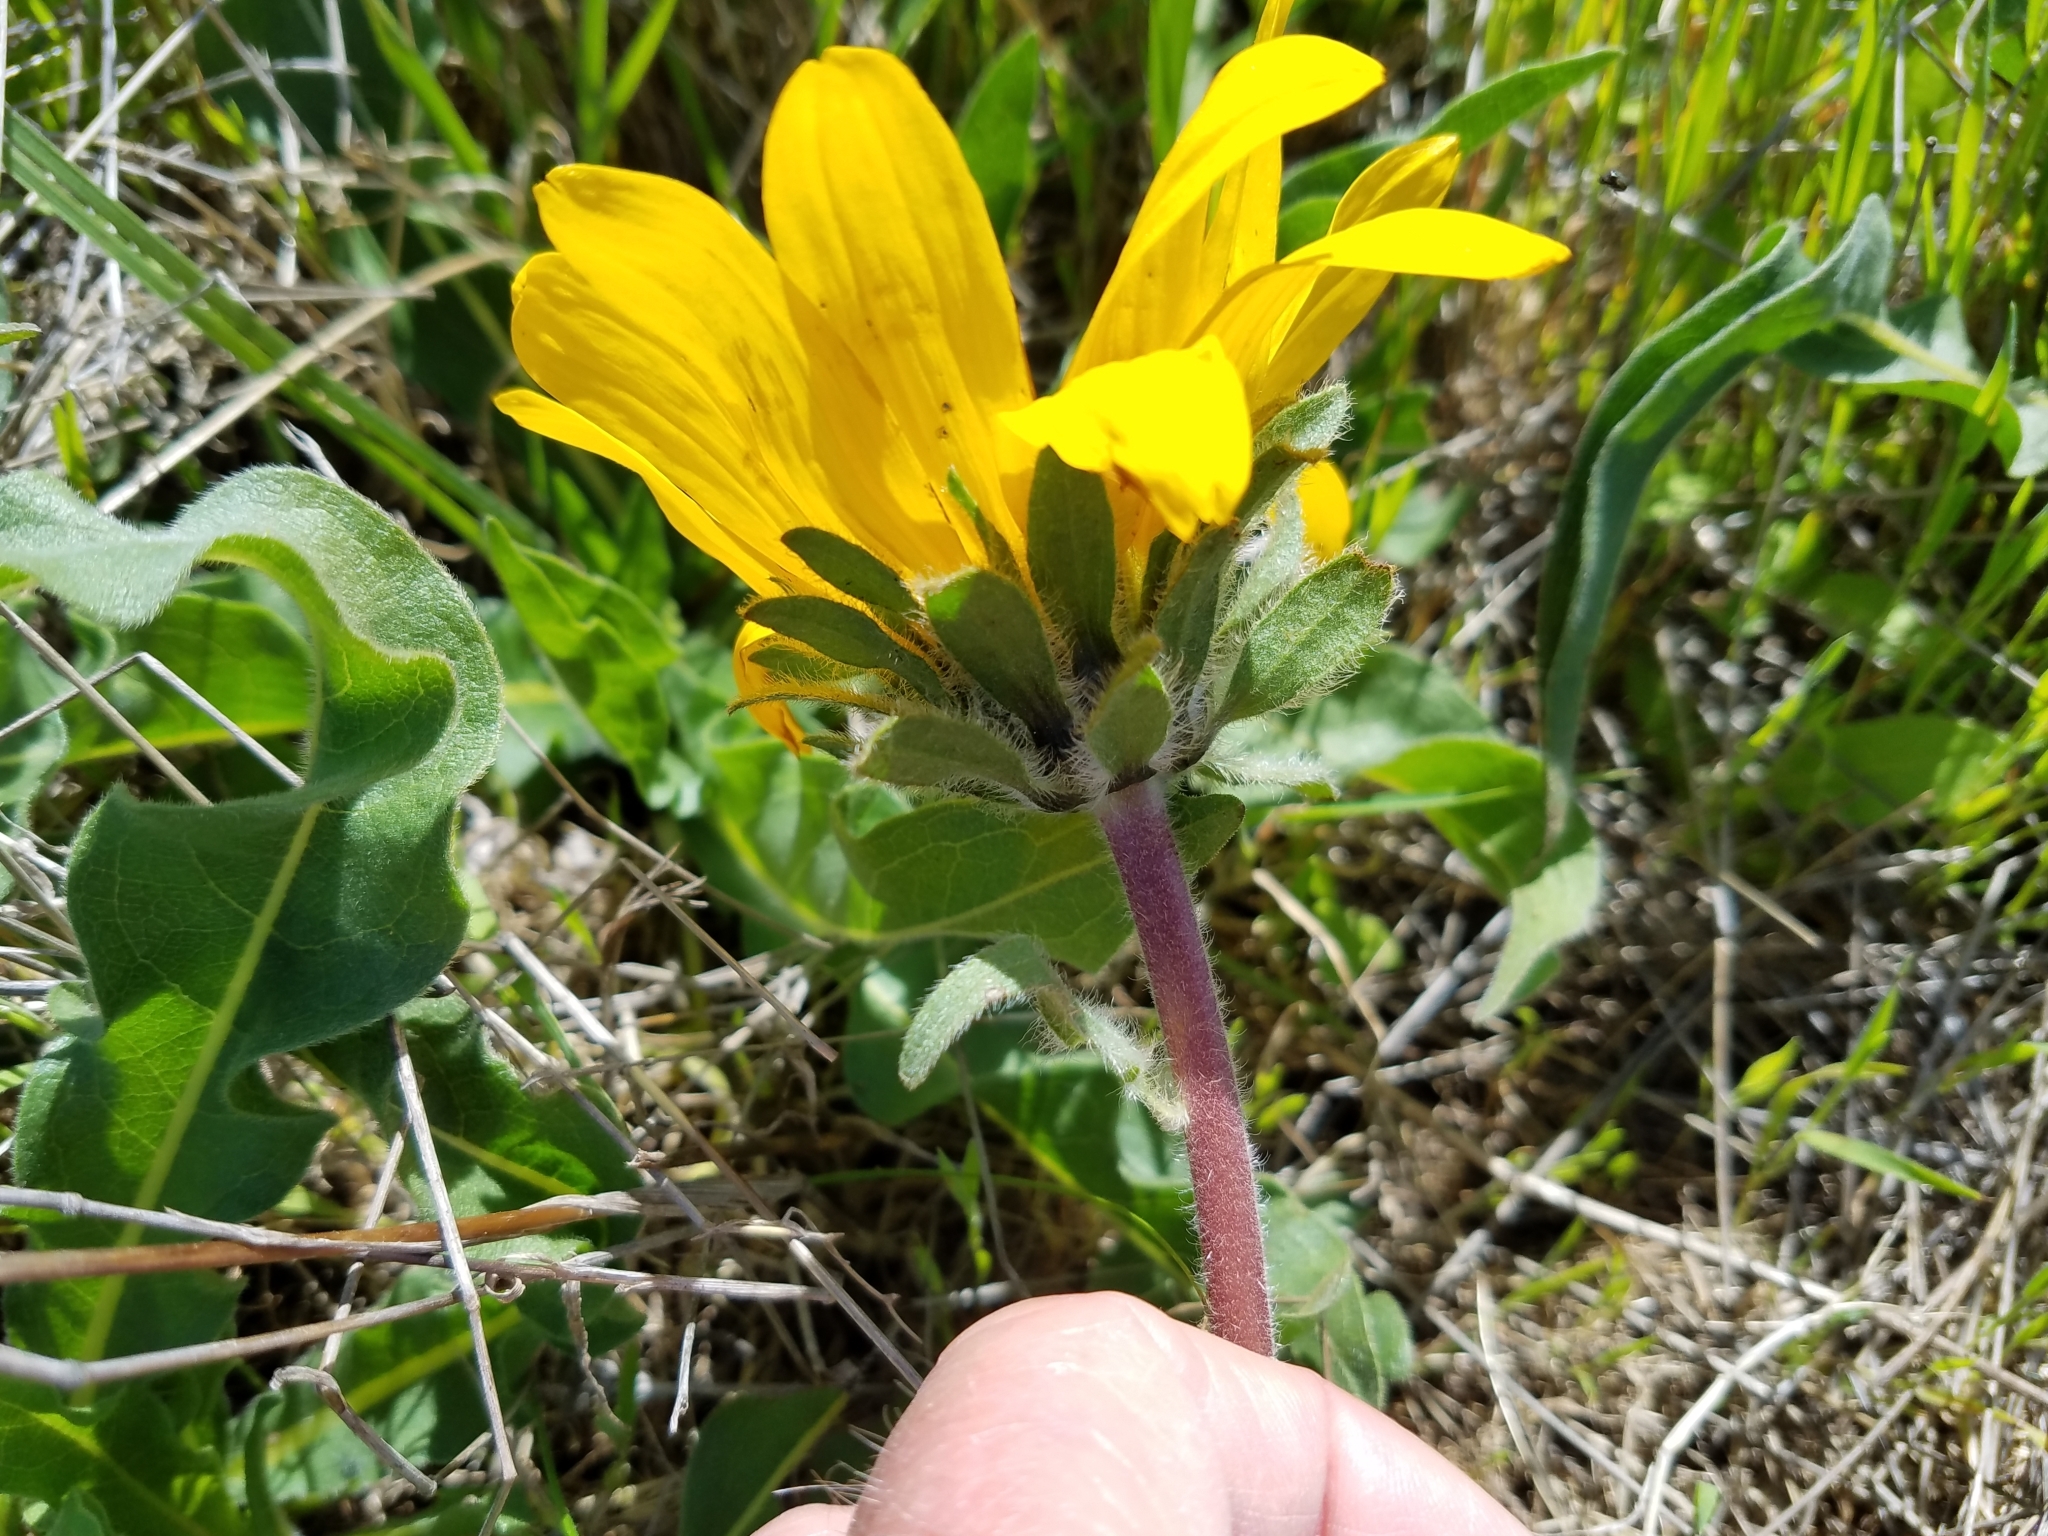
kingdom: Plantae
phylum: Tracheophyta
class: Magnoliopsida
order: Asterales
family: Asteraceae
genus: Wyethia
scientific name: Wyethia angustifolia
